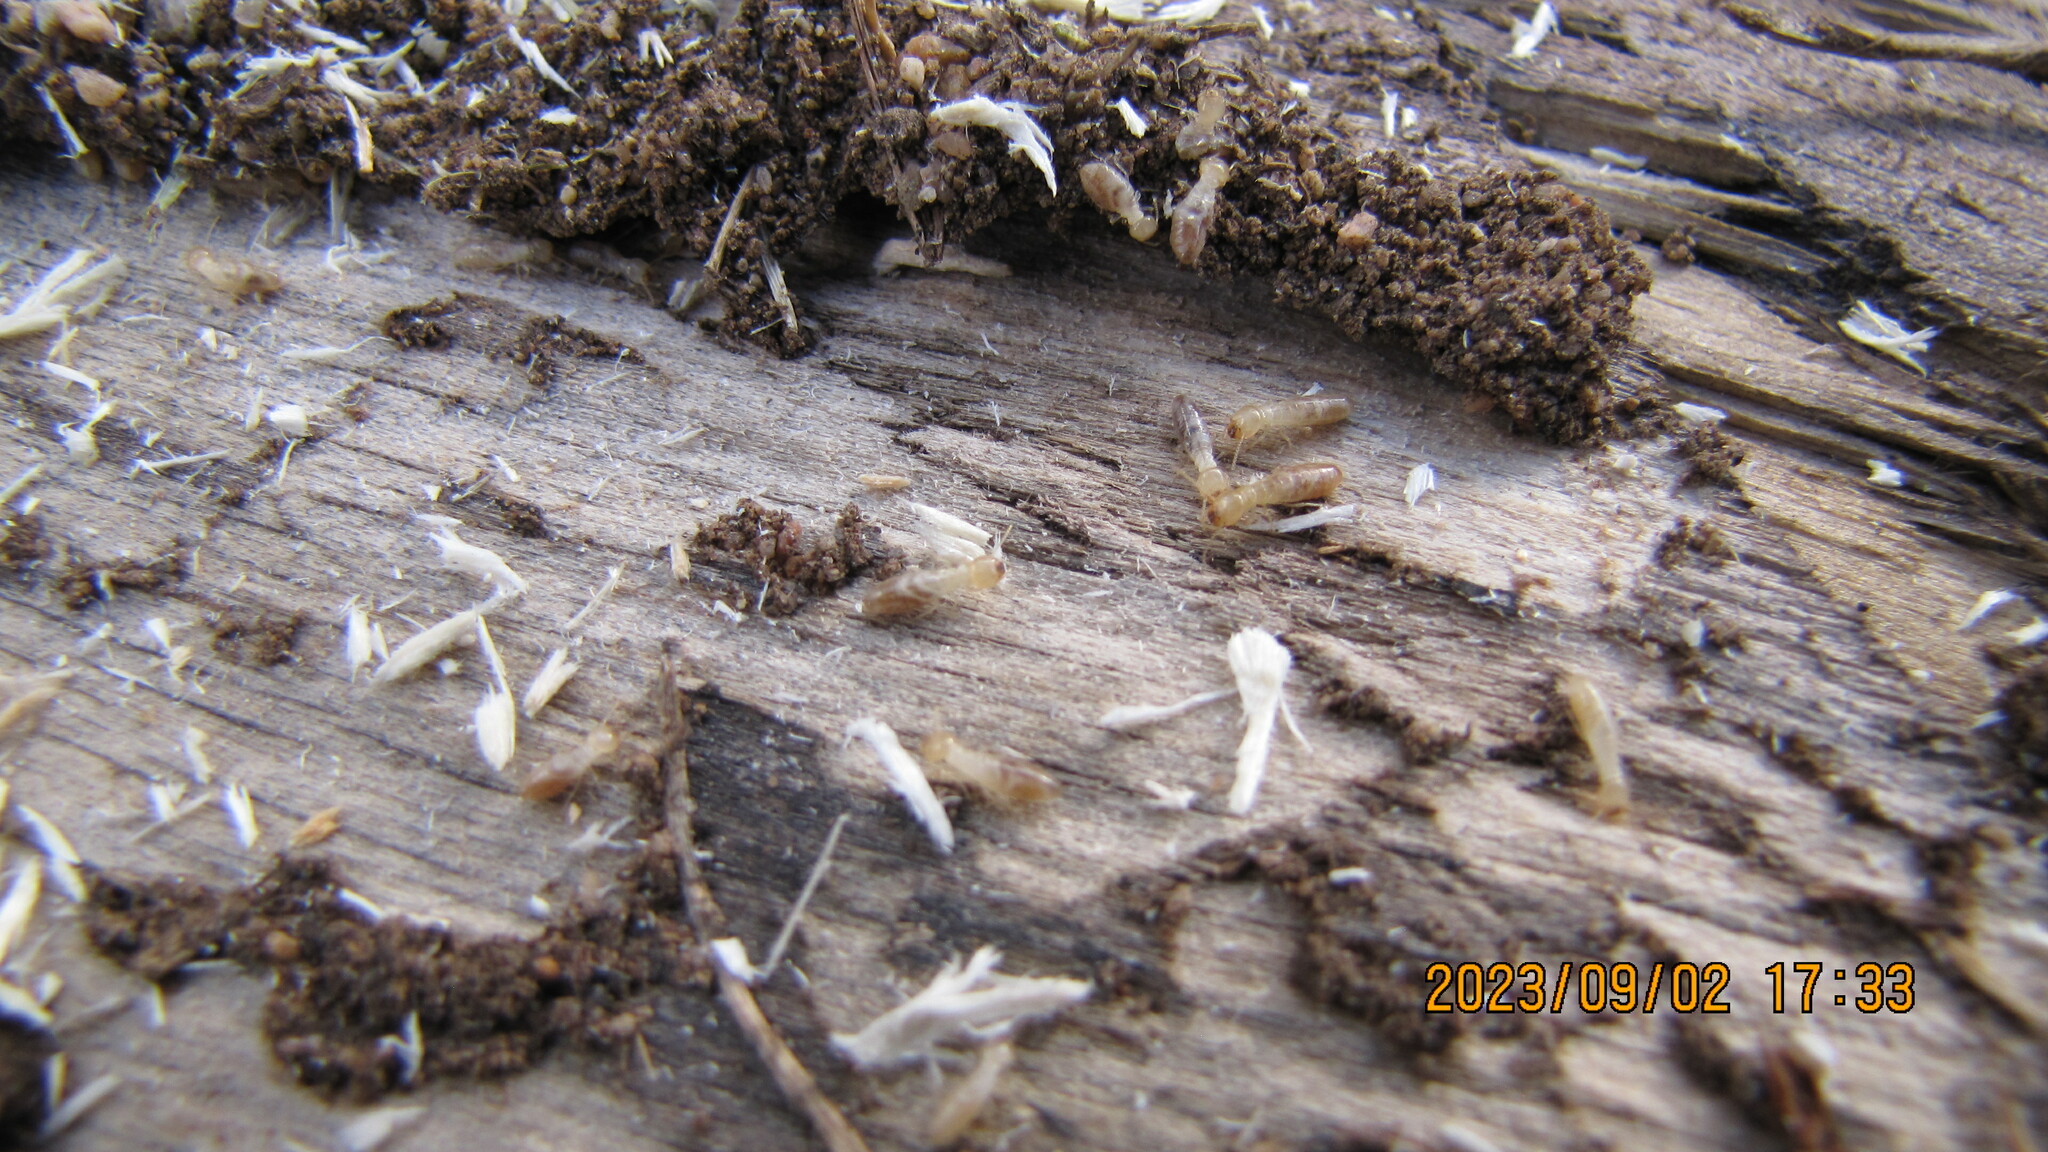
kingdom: Animalia
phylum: Arthropoda
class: Insecta
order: Blattodea
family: Rhinotermitidae
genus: Reticulitermes
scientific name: Reticulitermes hesperus
